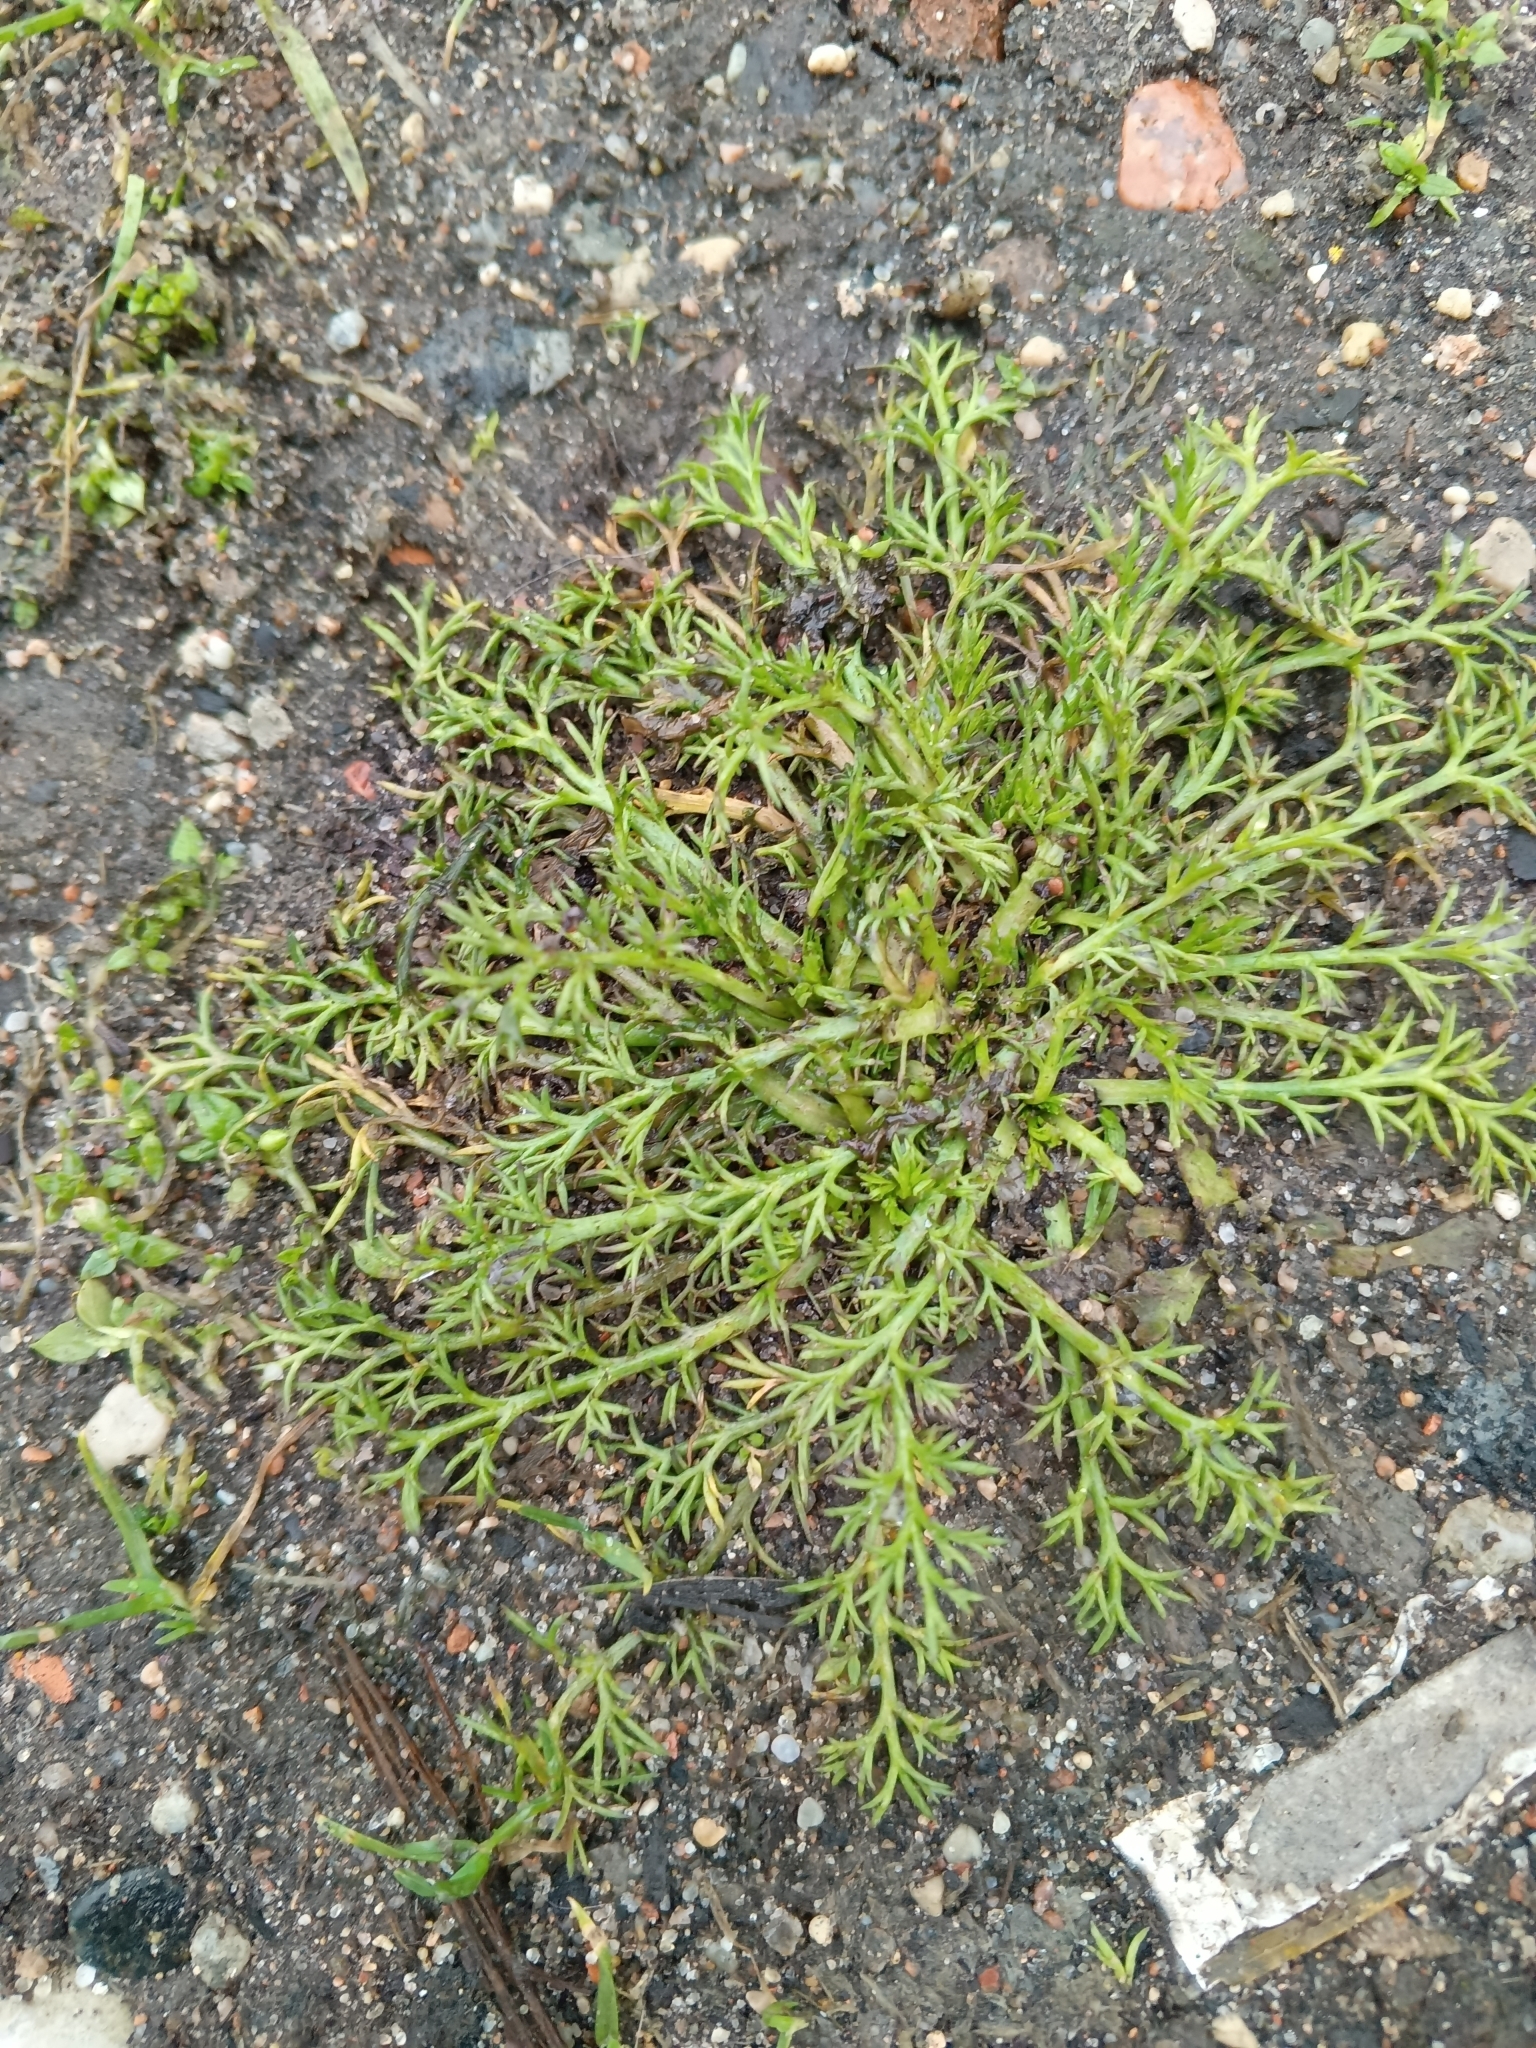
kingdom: Plantae
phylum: Tracheophyta
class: Magnoliopsida
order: Asterales
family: Asteraceae
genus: Tripleurospermum
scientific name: Tripleurospermum inodorum
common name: Scentless mayweed
